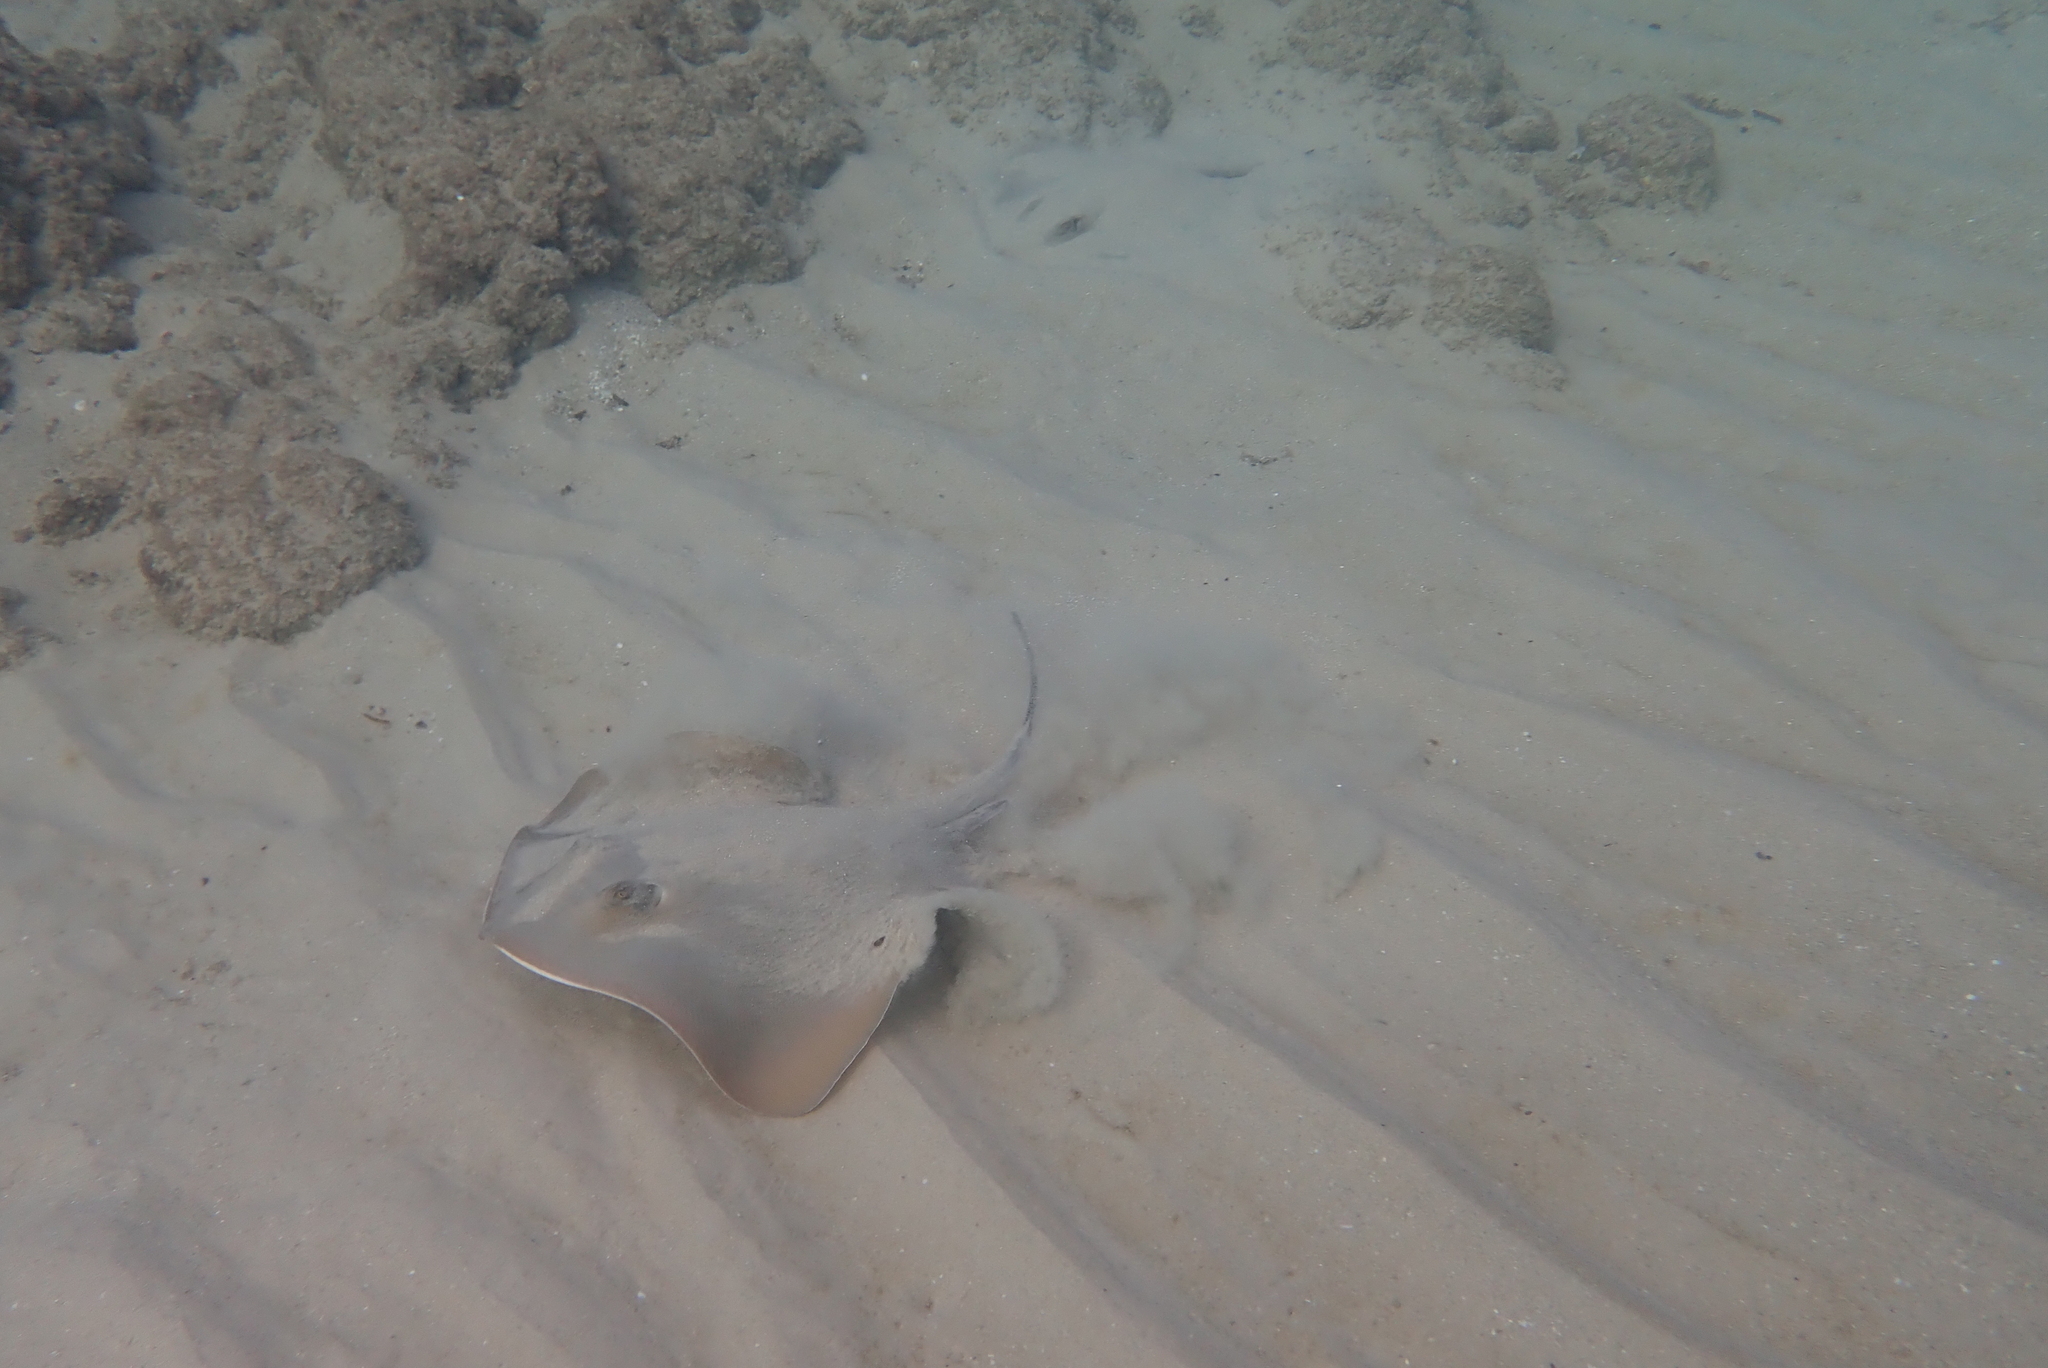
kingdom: Animalia
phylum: Chordata
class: Elasmobranchii
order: Myliobatiformes
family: Dasyatidae
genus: Dasyatis
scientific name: Dasyatis pastinaca
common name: Common stingray
